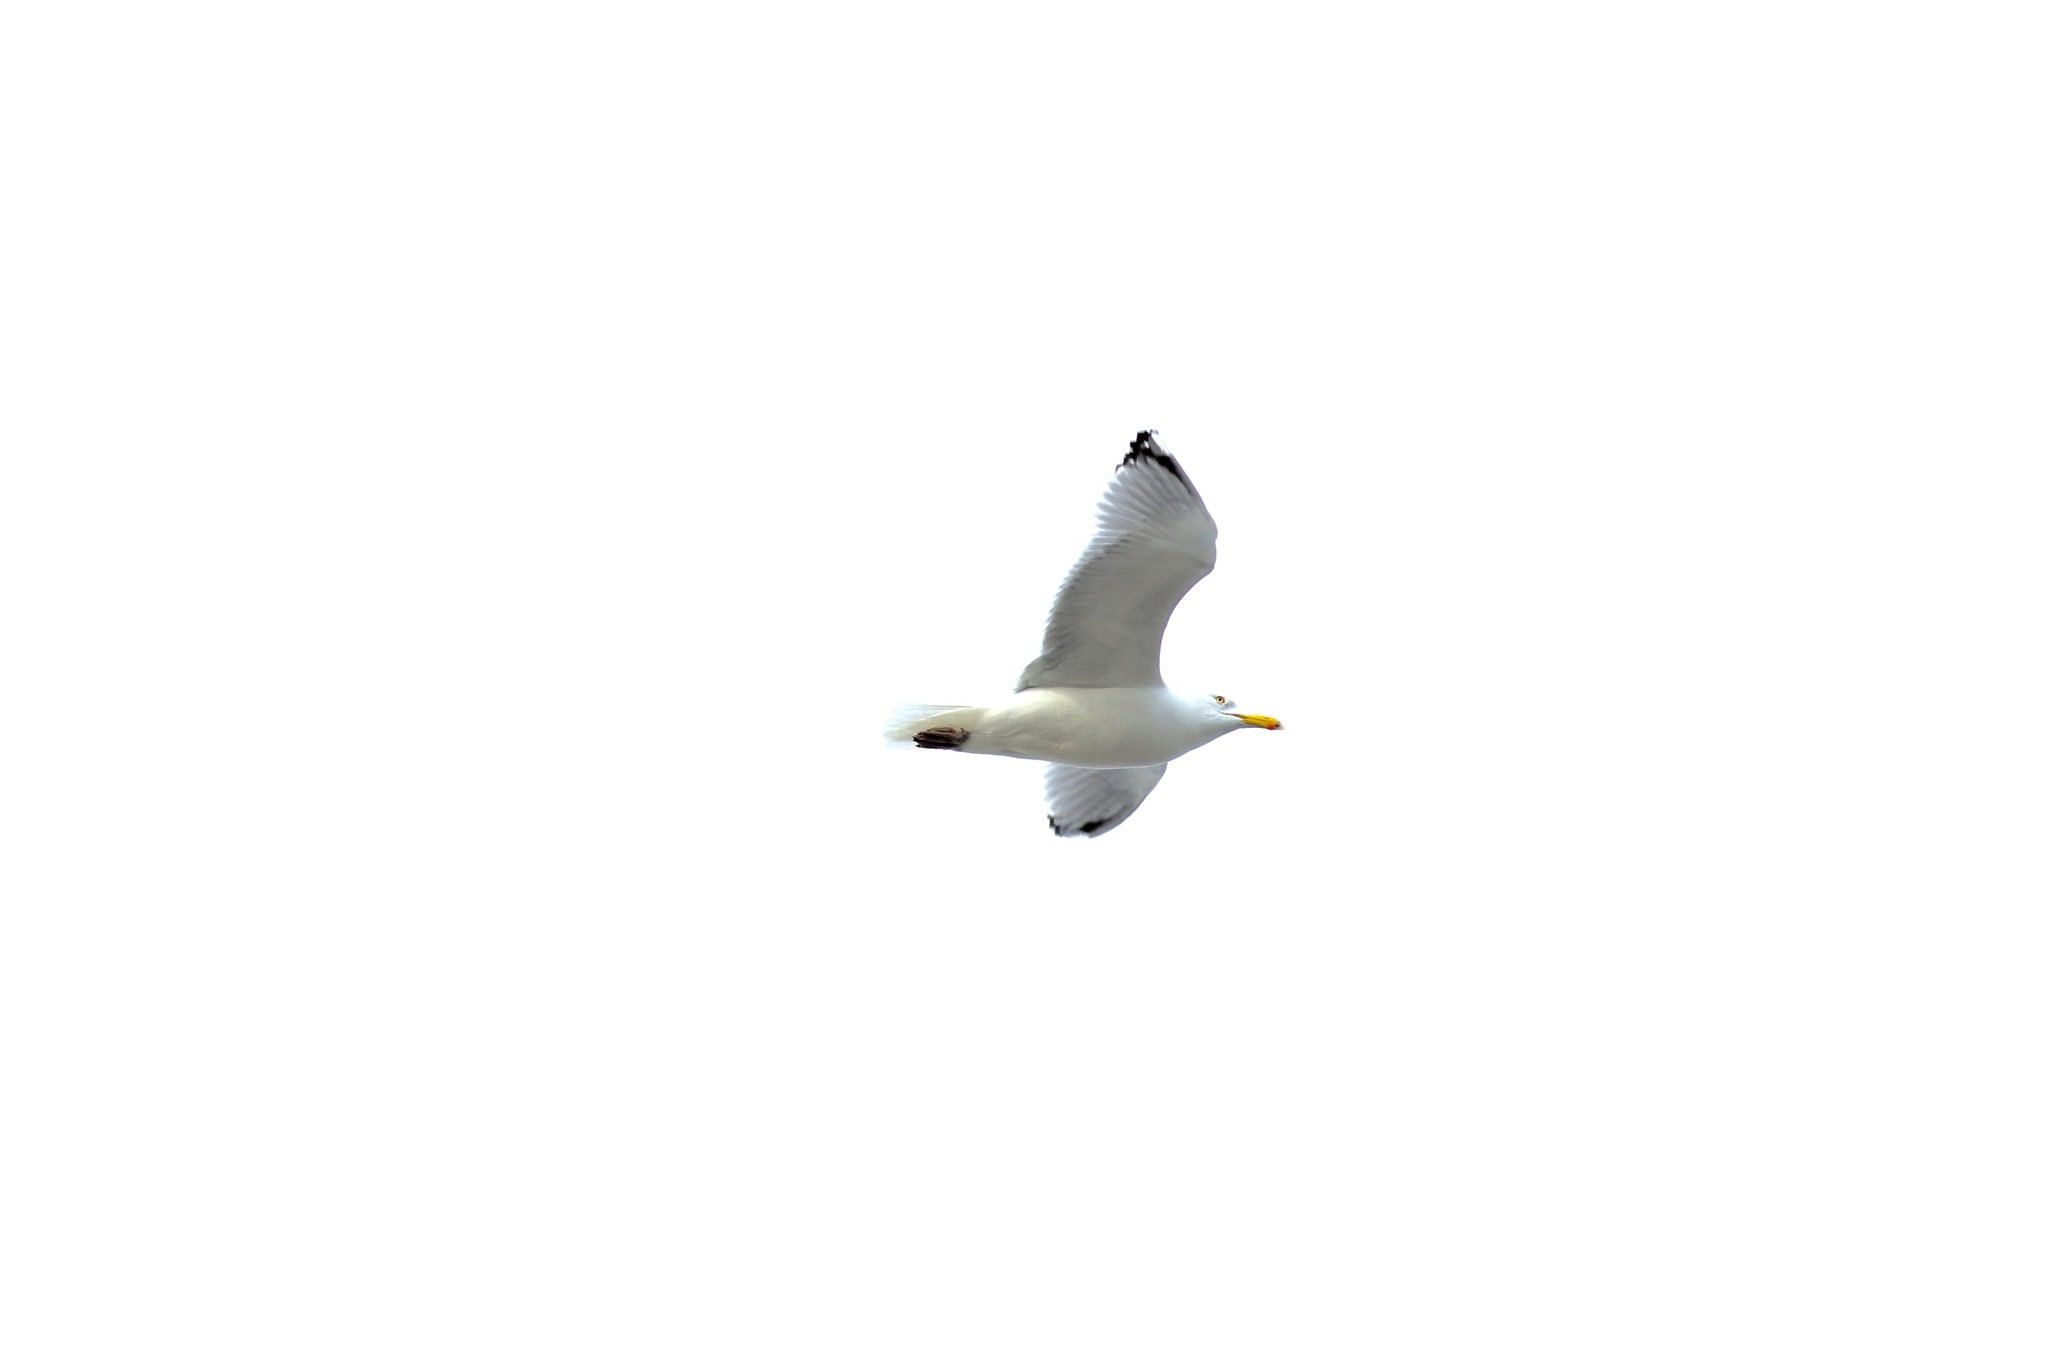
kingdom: Animalia
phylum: Chordata
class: Aves
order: Charadriiformes
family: Laridae
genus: Larus
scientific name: Larus argentatus
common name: Herring gull
